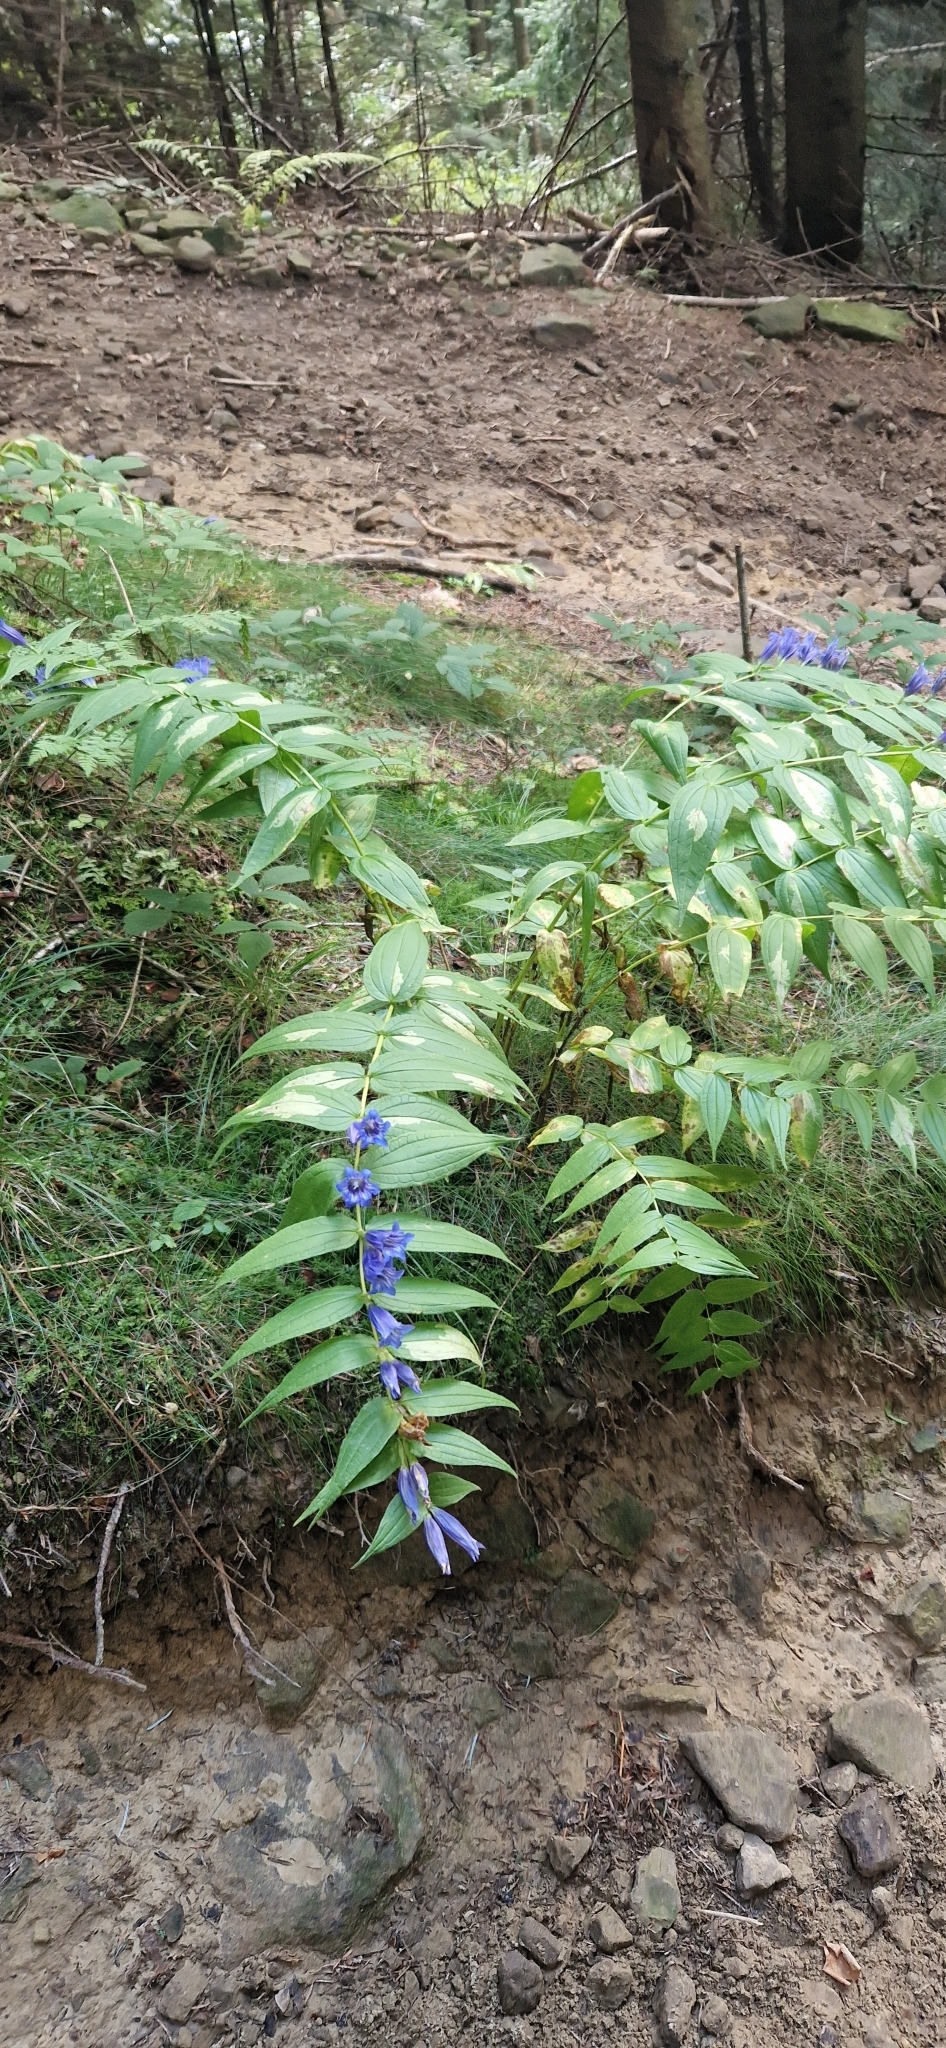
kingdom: Plantae
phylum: Tracheophyta
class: Magnoliopsida
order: Gentianales
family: Gentianaceae
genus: Gentiana
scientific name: Gentiana asclepiadea
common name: Willow gentian
